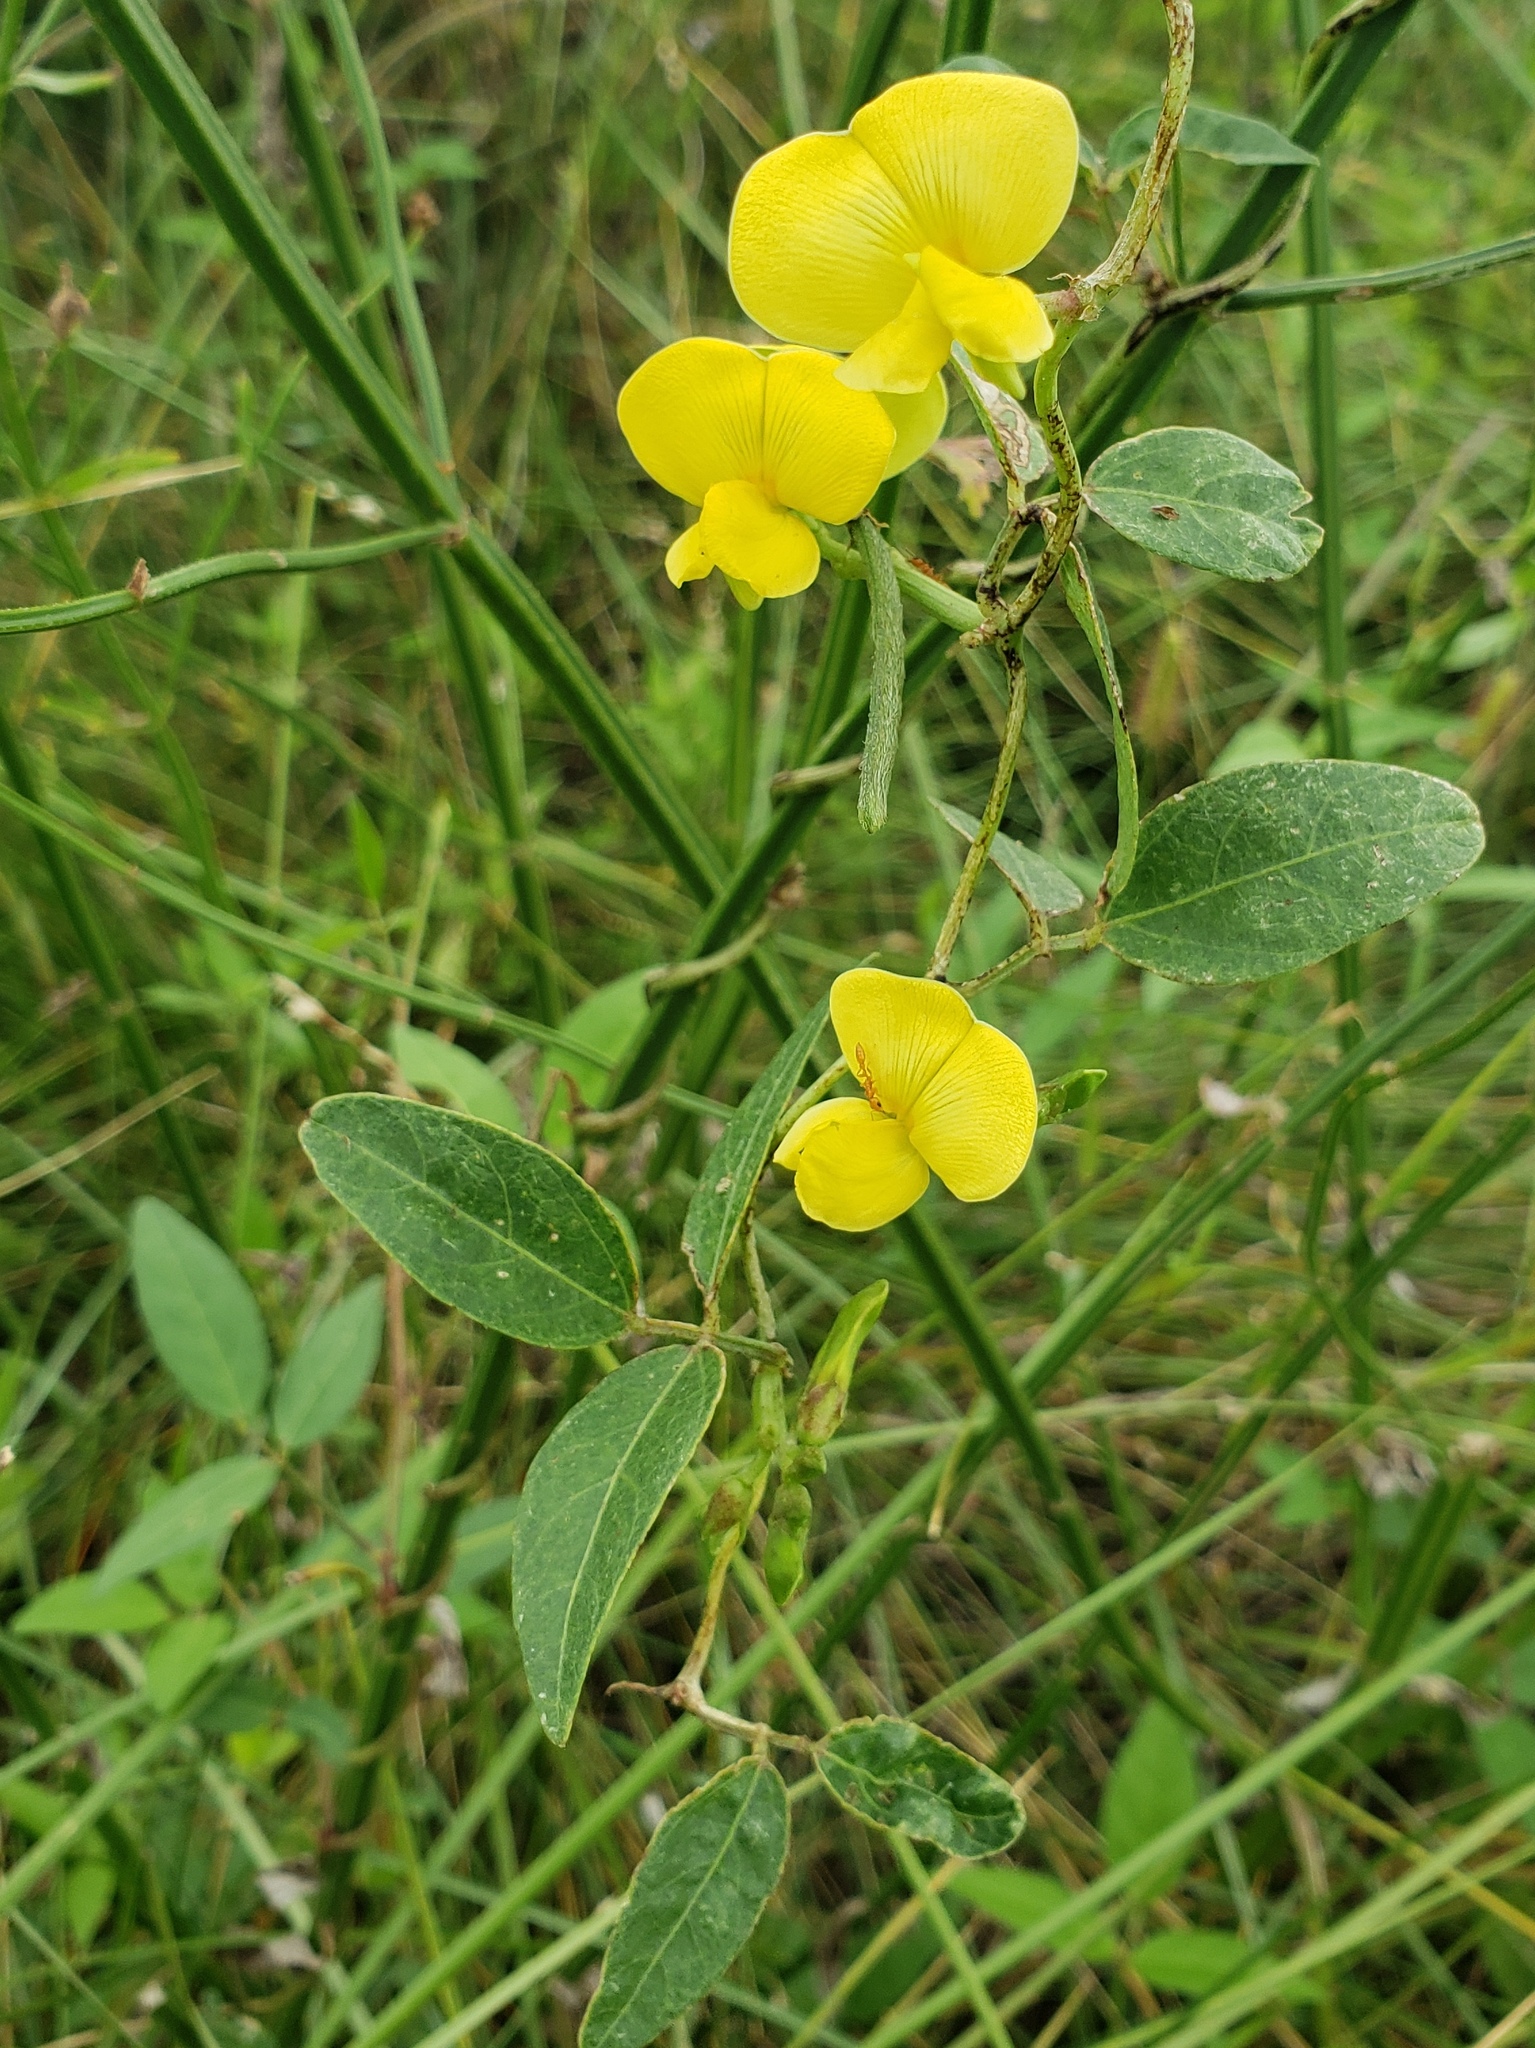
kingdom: Plantae
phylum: Tracheophyta
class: Magnoliopsida
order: Fabales
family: Fabaceae
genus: Vigna
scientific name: Vigna luteola
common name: Hairypod cowpea
